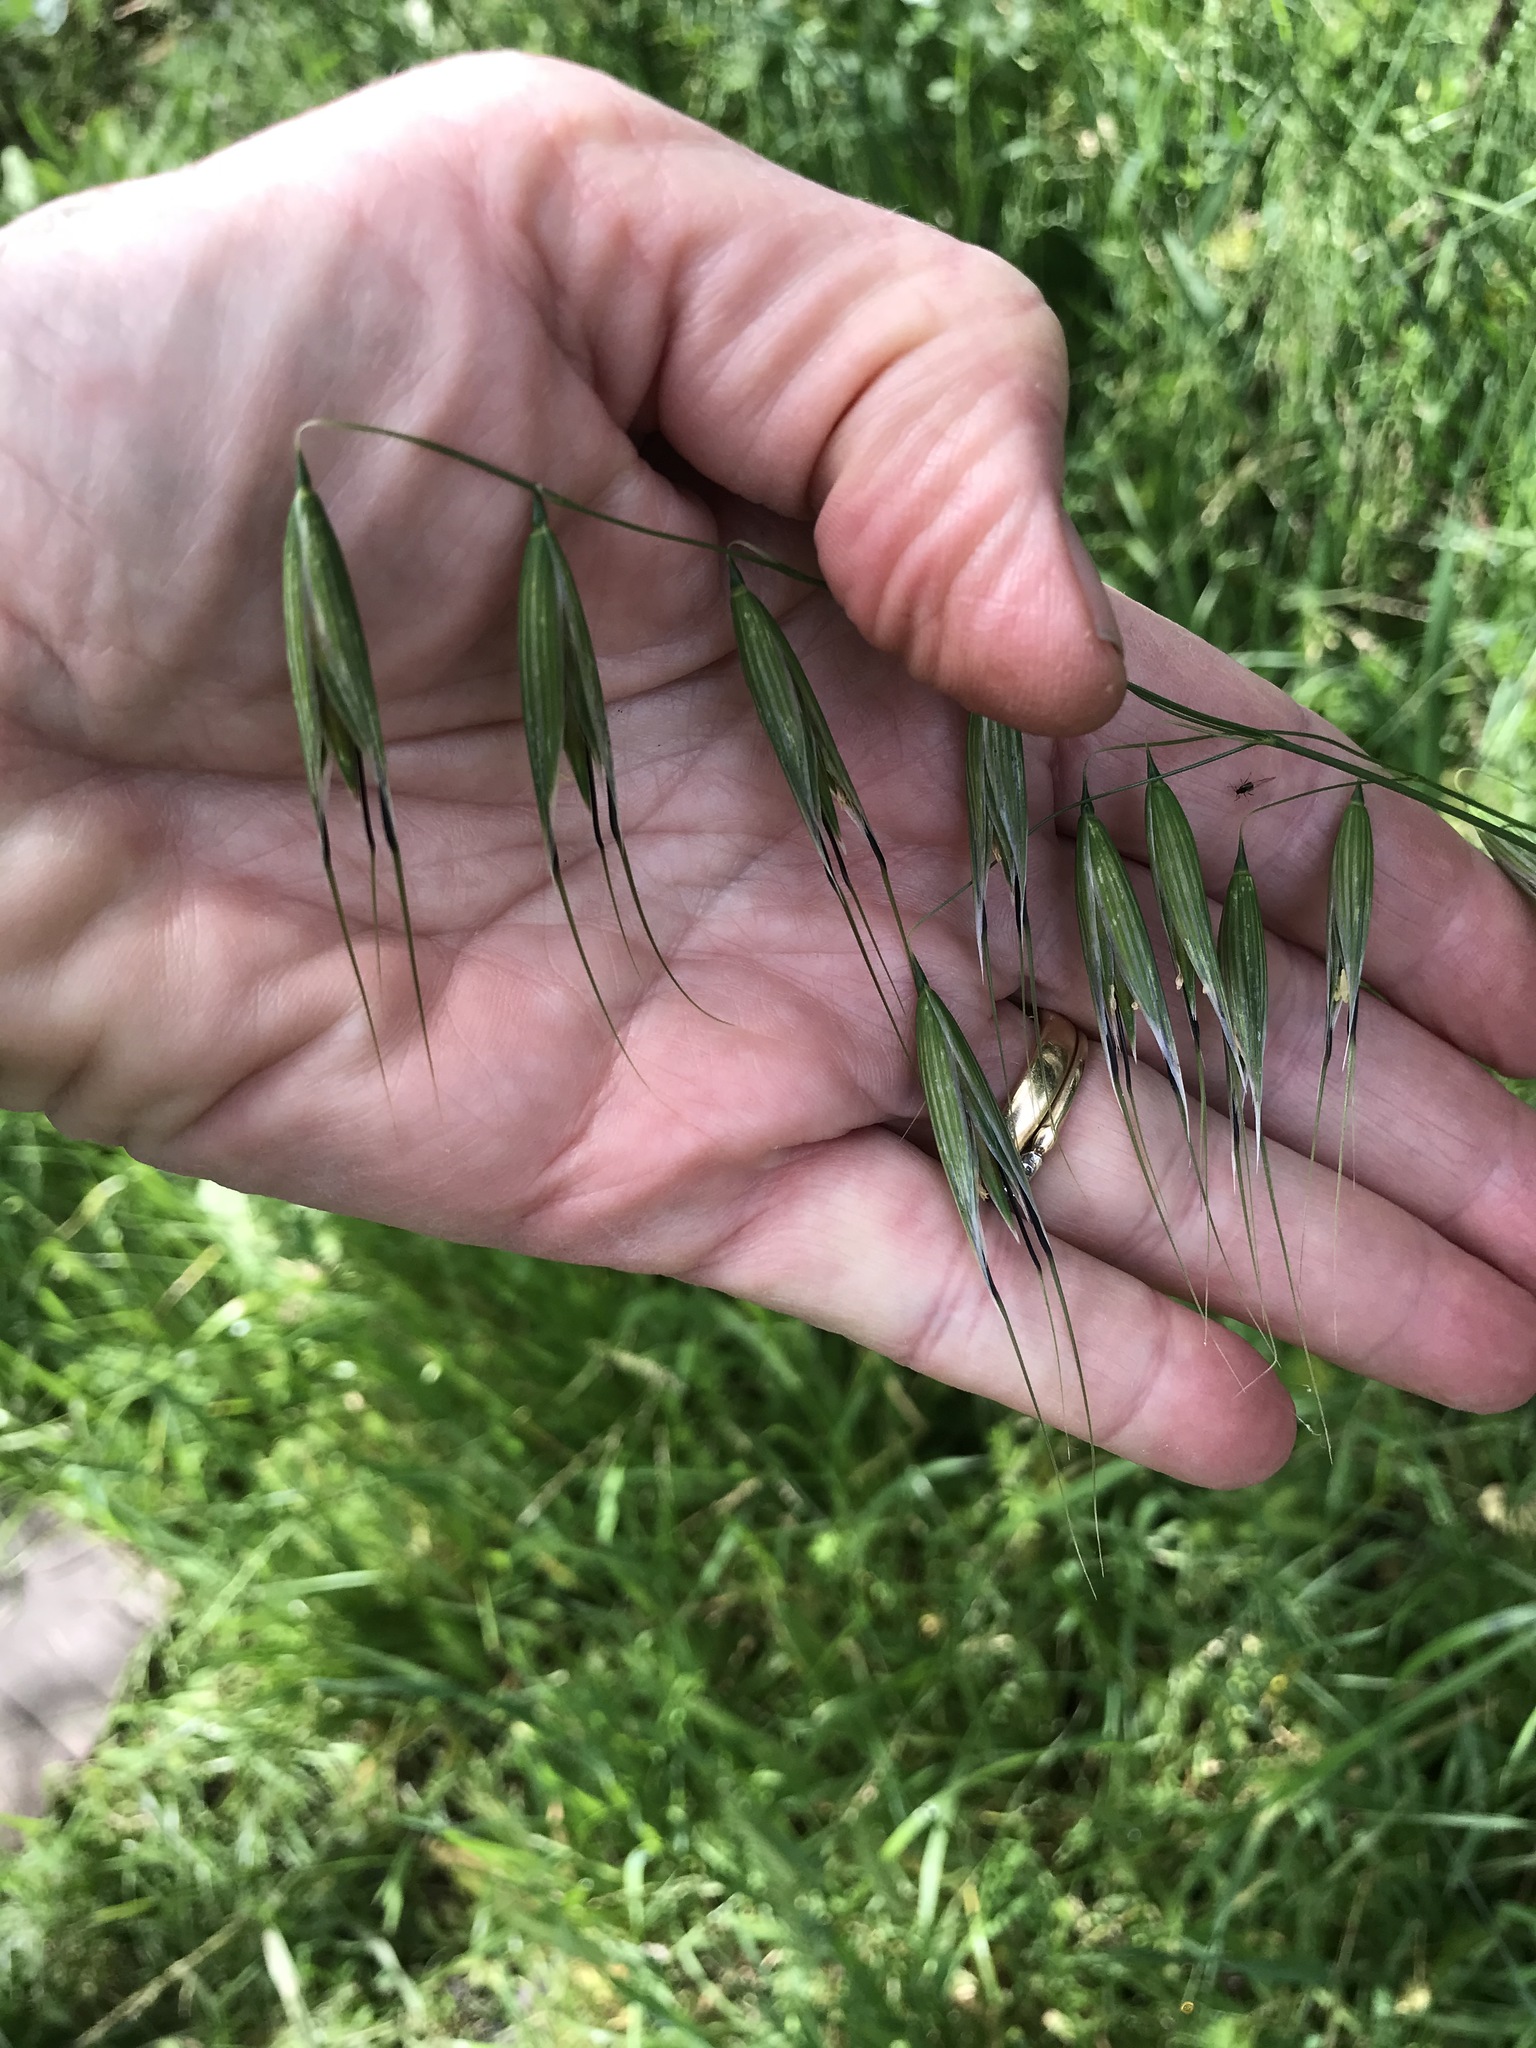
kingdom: Plantae
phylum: Tracheophyta
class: Liliopsida
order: Poales
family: Poaceae
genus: Avena
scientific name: Avena fatua
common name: Wild oat
